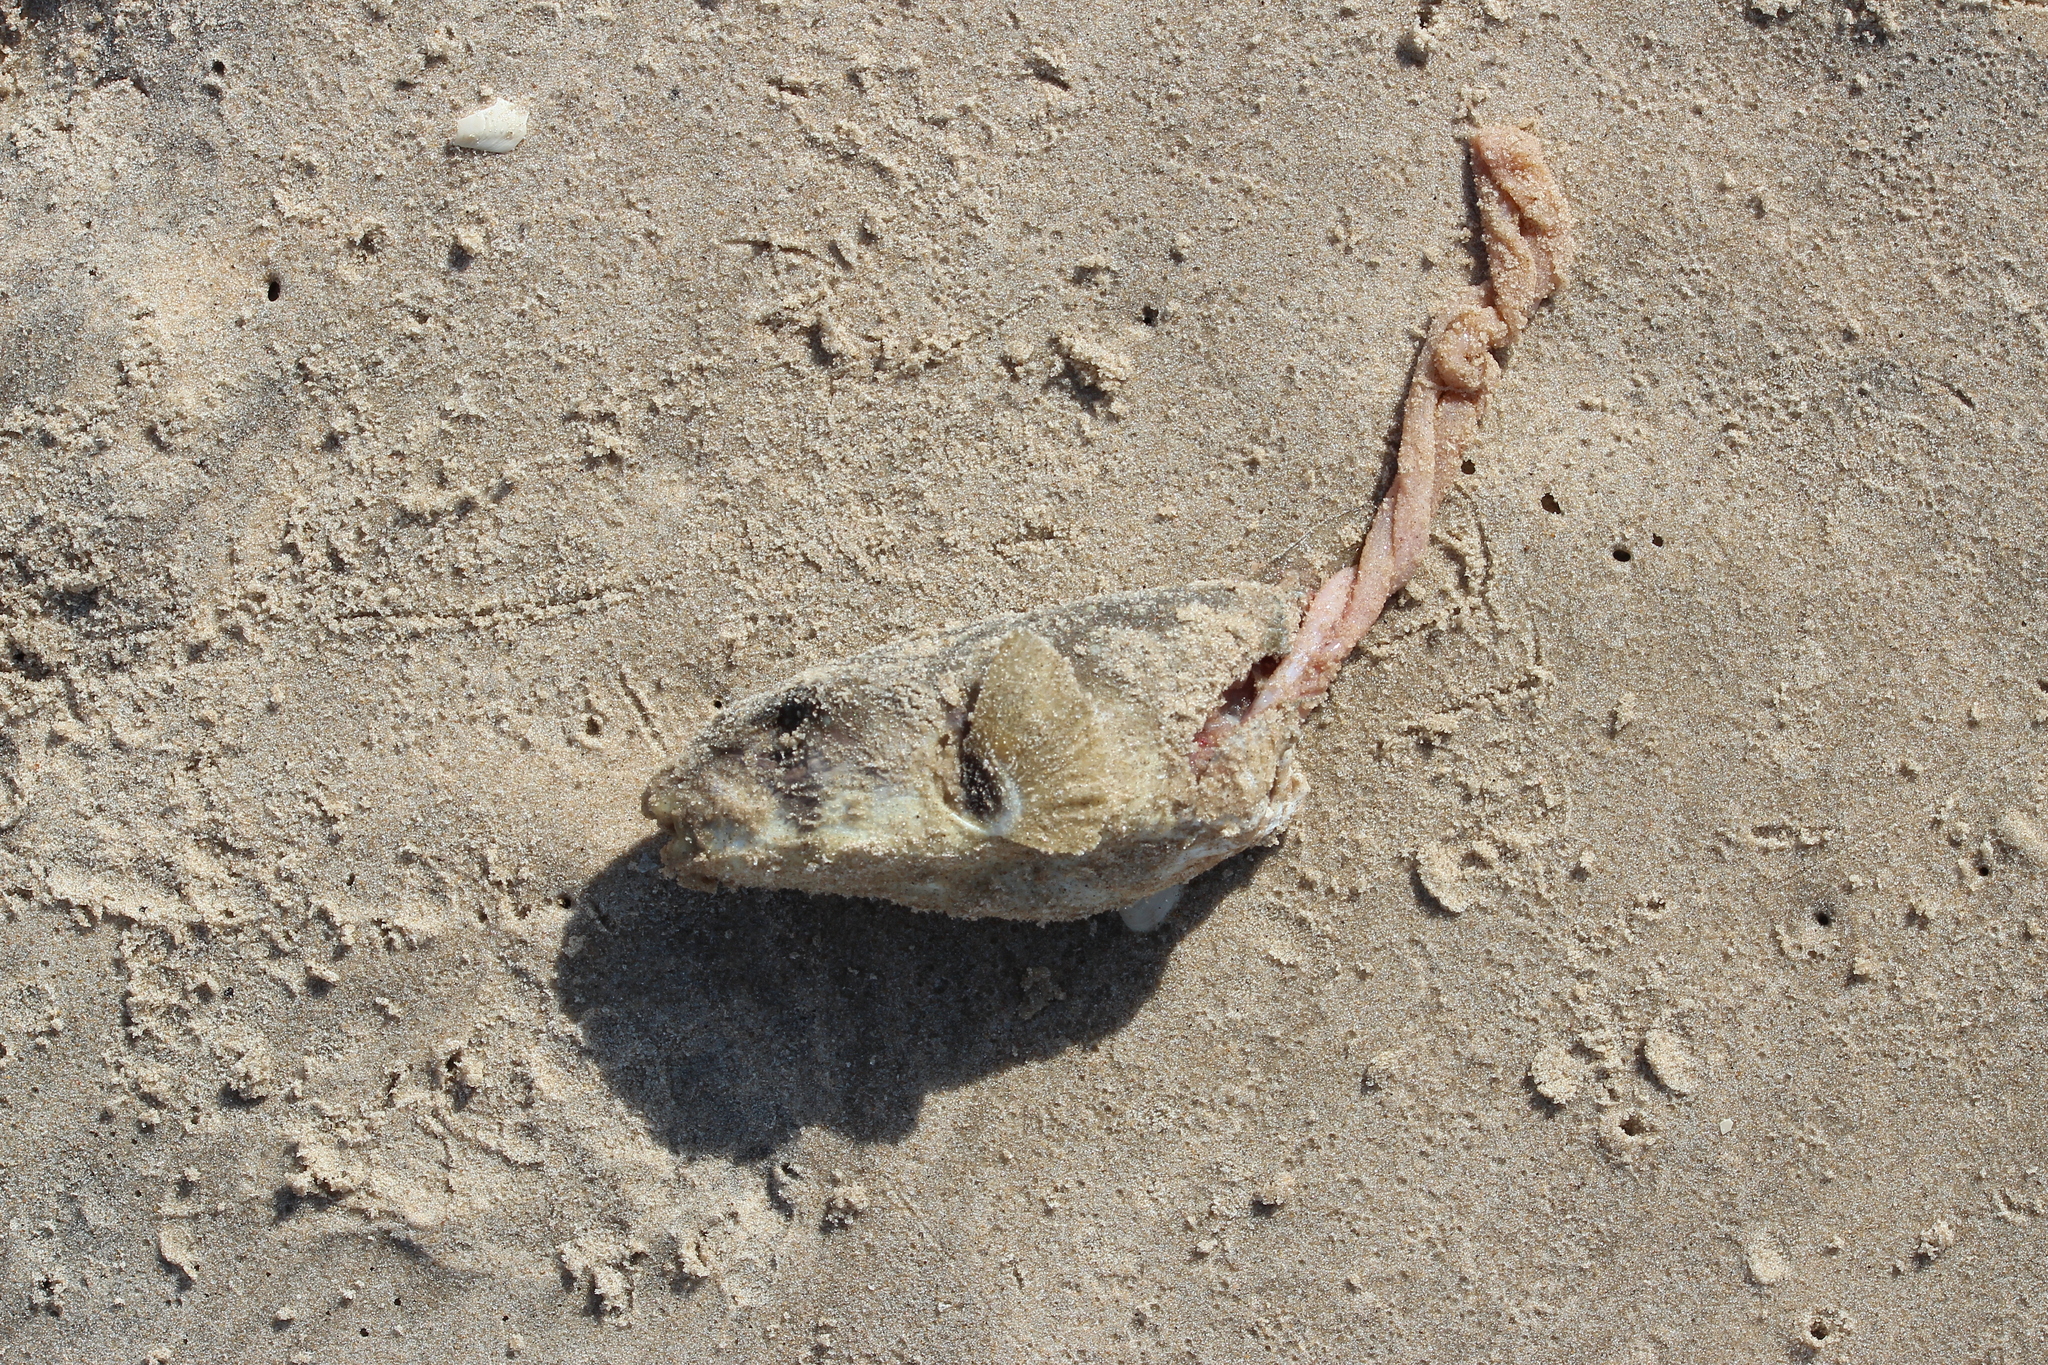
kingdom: Animalia
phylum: Chordata
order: Tetraodontiformes
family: Tetraodontidae
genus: Ephippion
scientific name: Ephippion guttifer
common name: Common puffer
